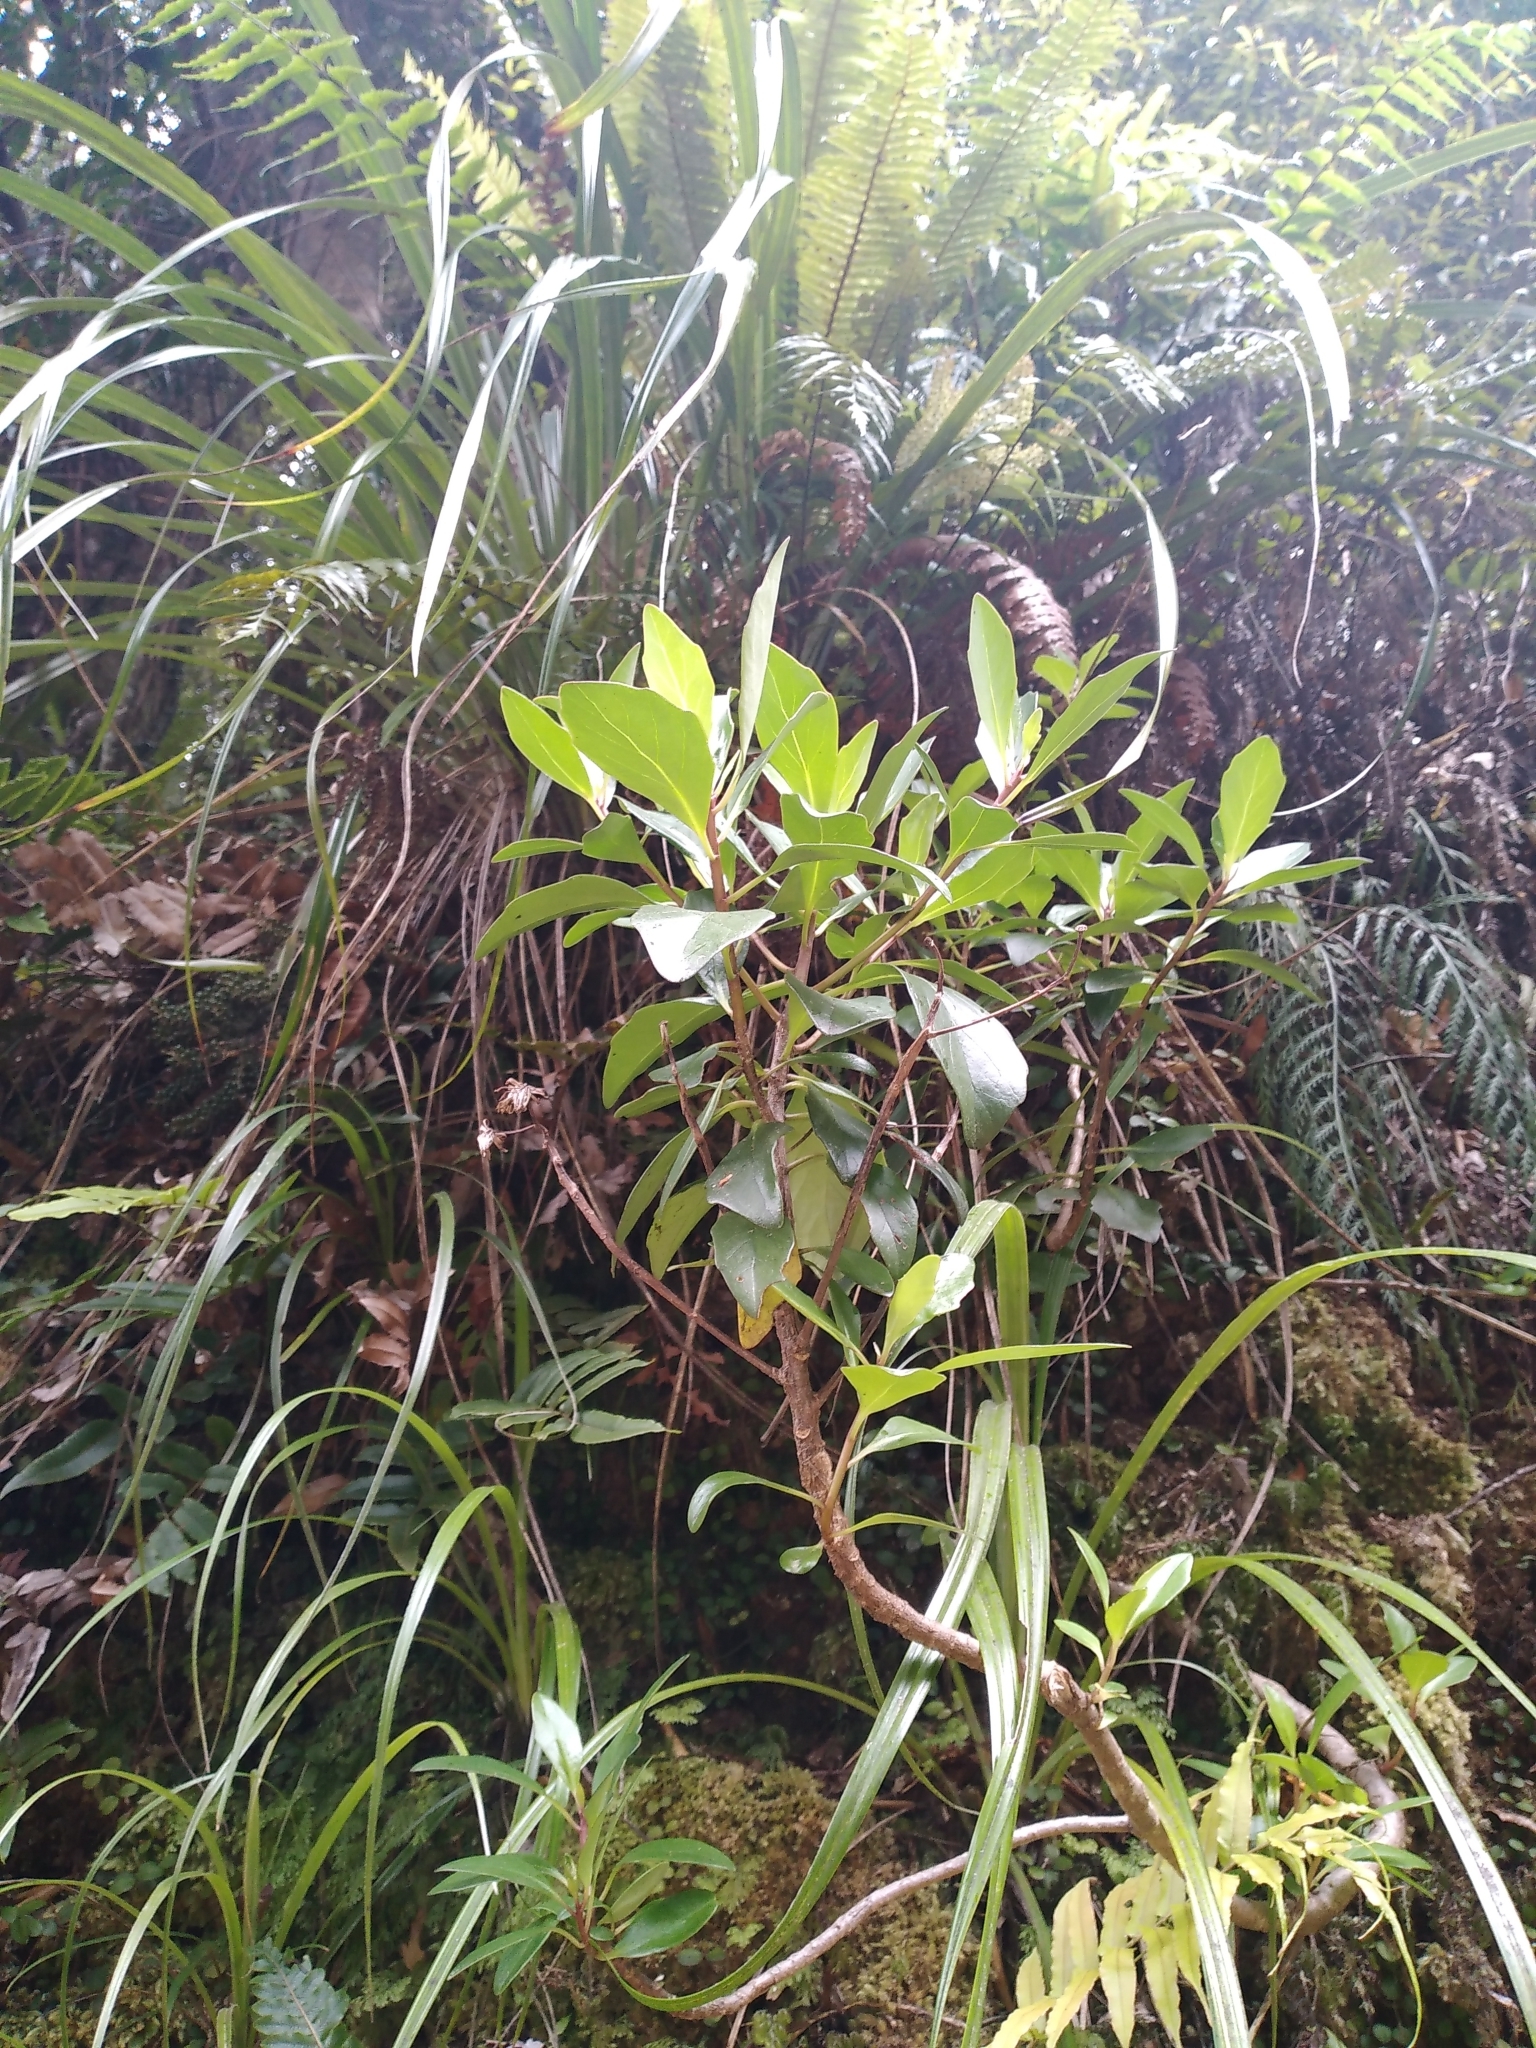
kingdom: Plantae
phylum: Tracheophyta
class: Magnoliopsida
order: Asterales
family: Asteraceae
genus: Brachyglottis
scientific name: Brachyglottis kirkii
